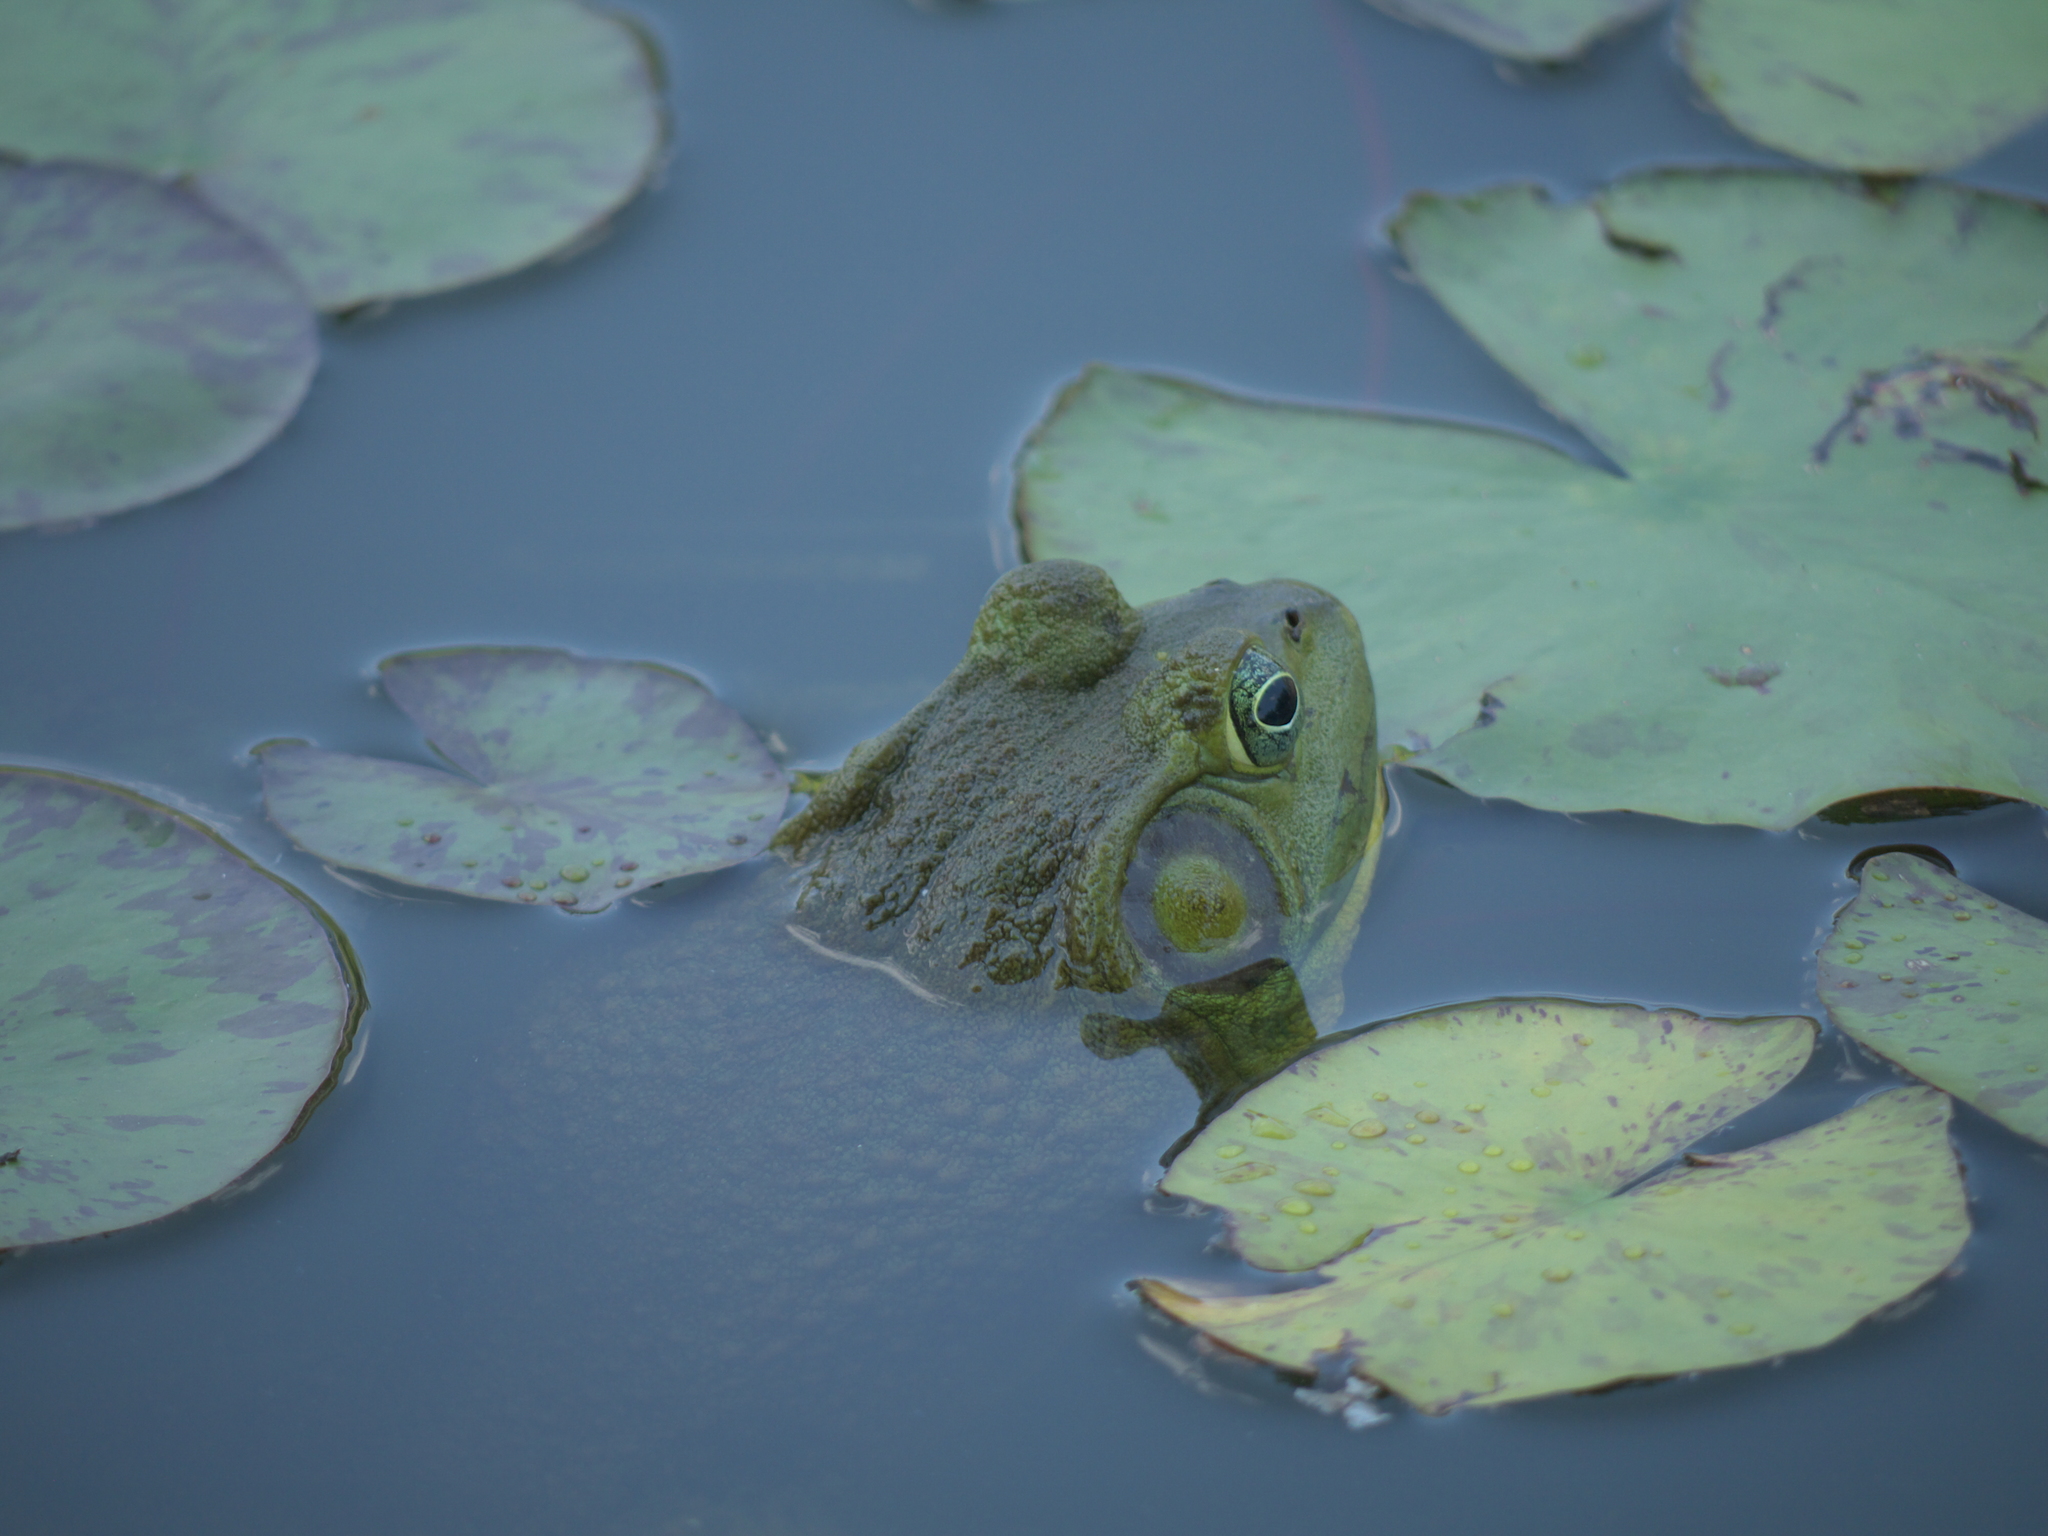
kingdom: Animalia
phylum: Chordata
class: Amphibia
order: Anura
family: Ranidae
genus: Lithobates
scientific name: Lithobates catesbeianus
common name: American bullfrog
